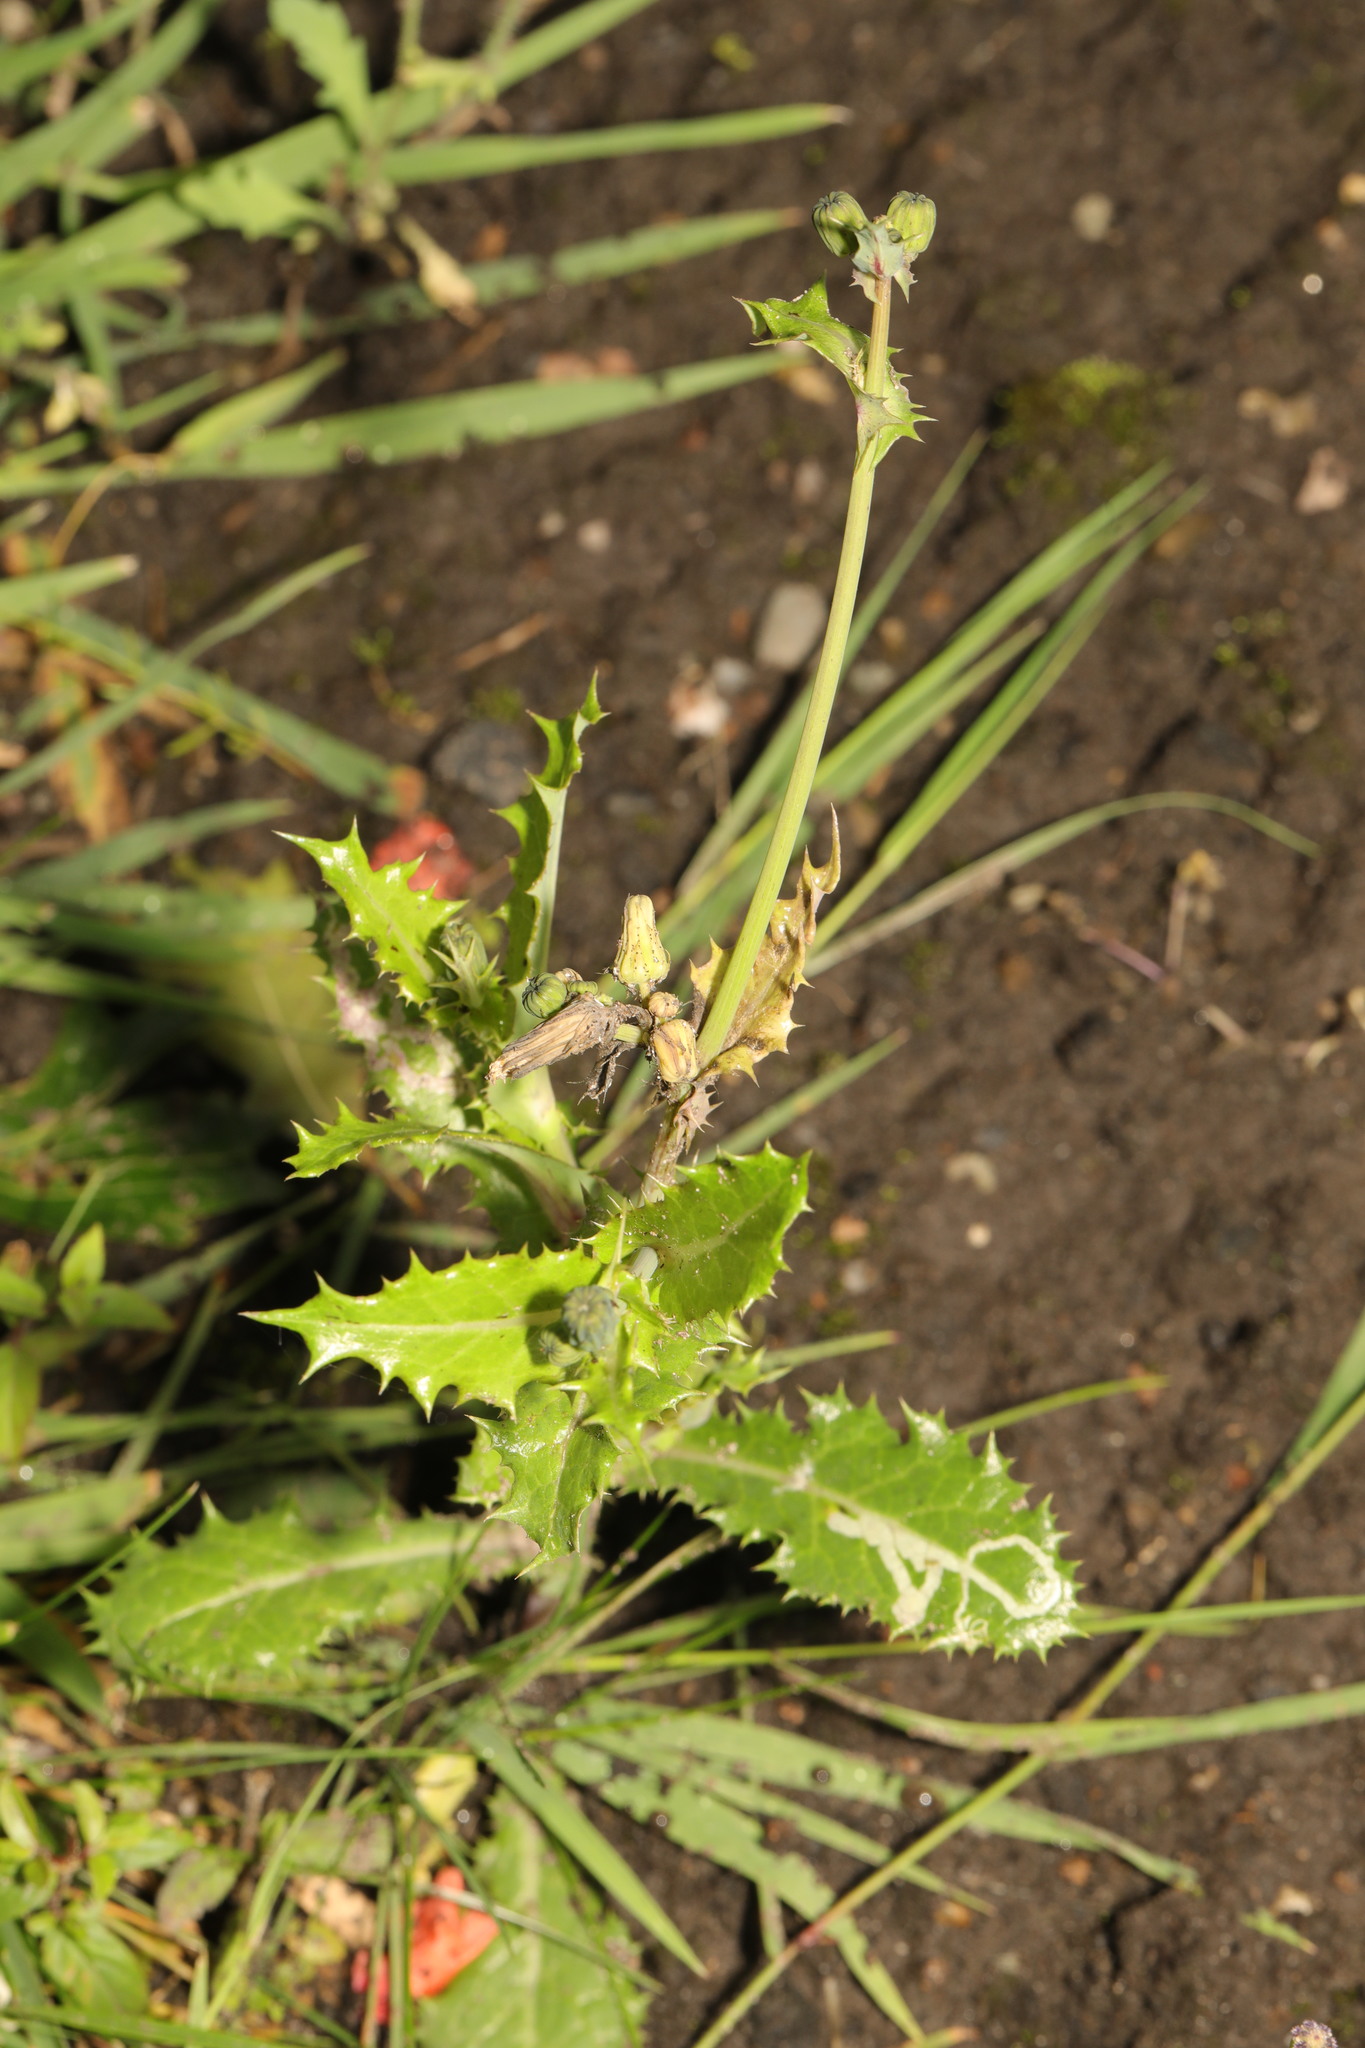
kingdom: Plantae
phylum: Tracheophyta
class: Magnoliopsida
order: Asterales
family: Asteraceae
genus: Sonchus
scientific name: Sonchus asper
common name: Prickly sow-thistle
